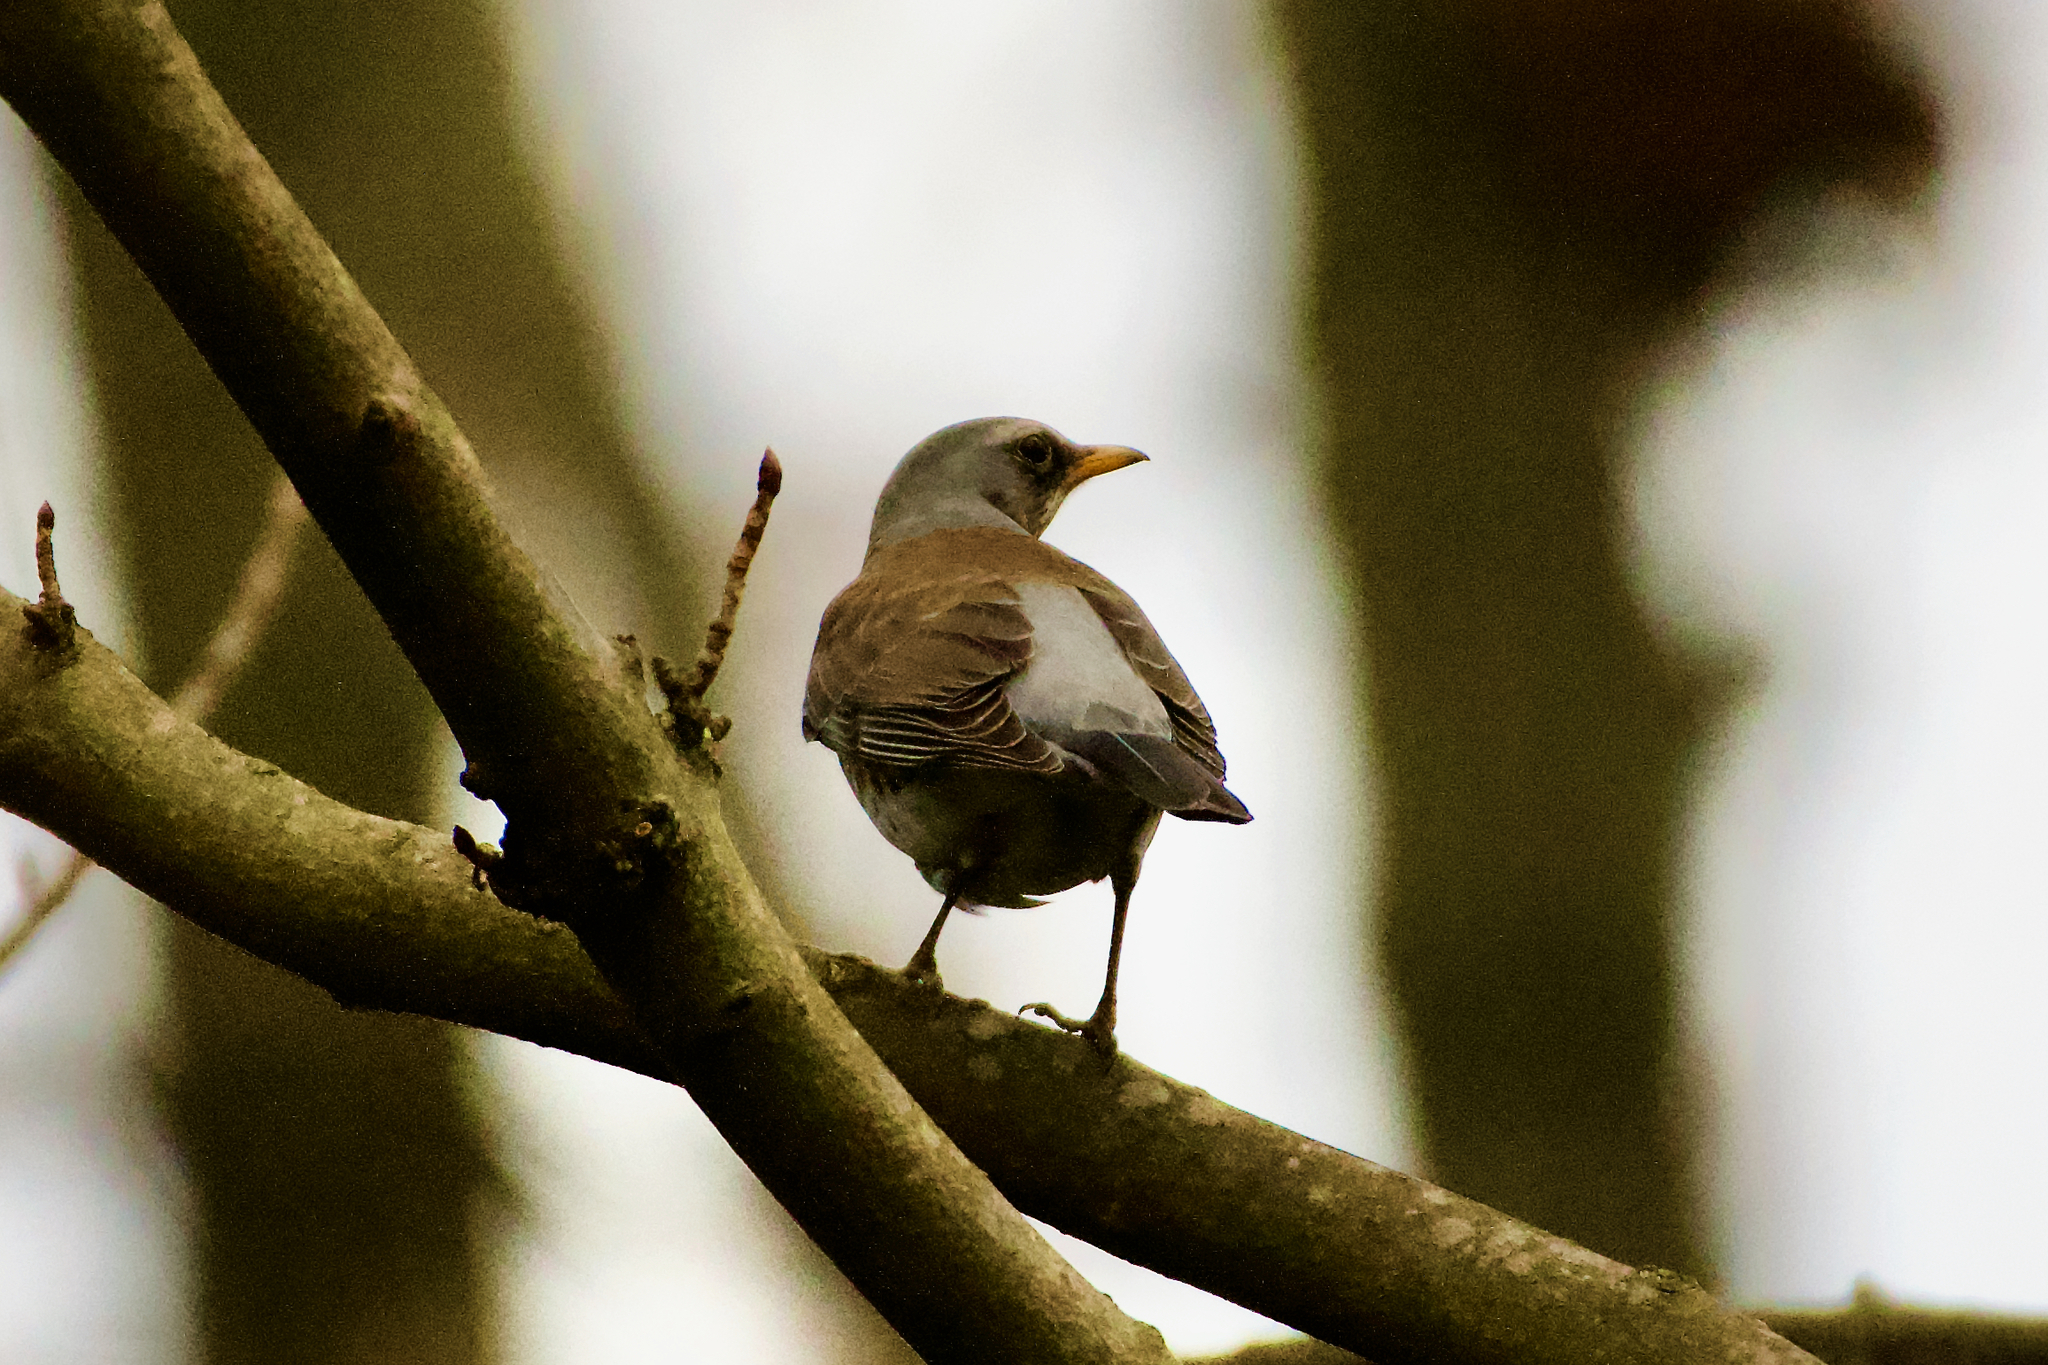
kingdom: Animalia
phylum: Chordata
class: Aves
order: Passeriformes
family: Turdidae
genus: Turdus
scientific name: Turdus pilaris
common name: Fieldfare
